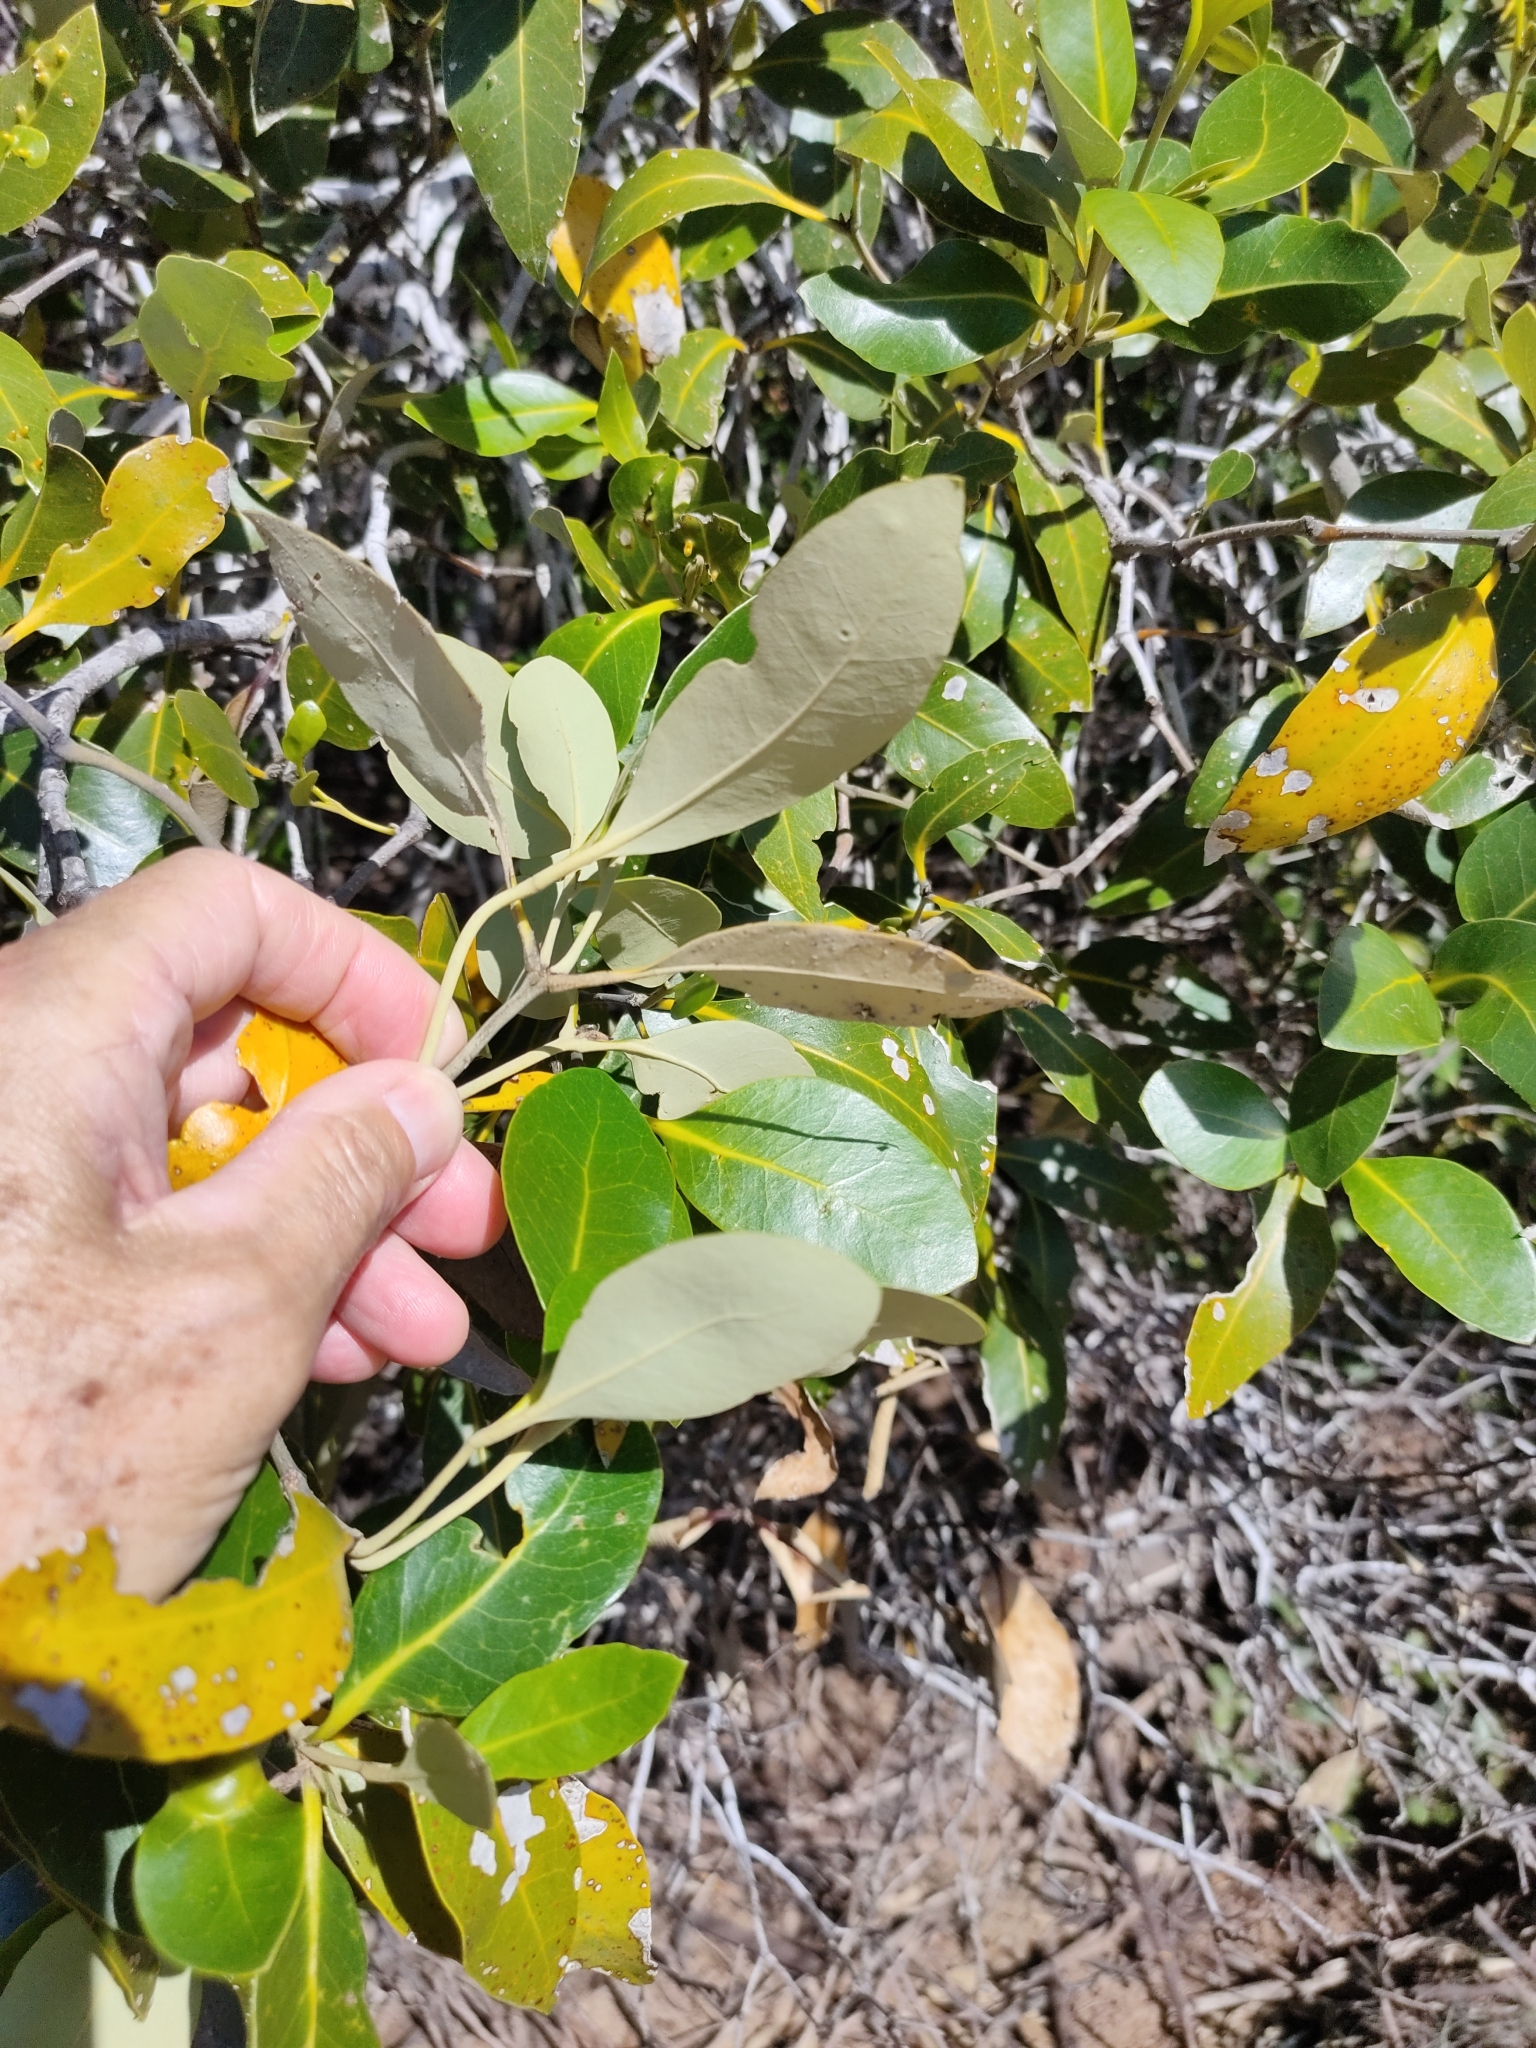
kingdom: Plantae
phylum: Tracheophyta
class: Magnoliopsida
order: Lamiales
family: Acanthaceae
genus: Avicennia
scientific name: Avicennia marina
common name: Gray mangrove
